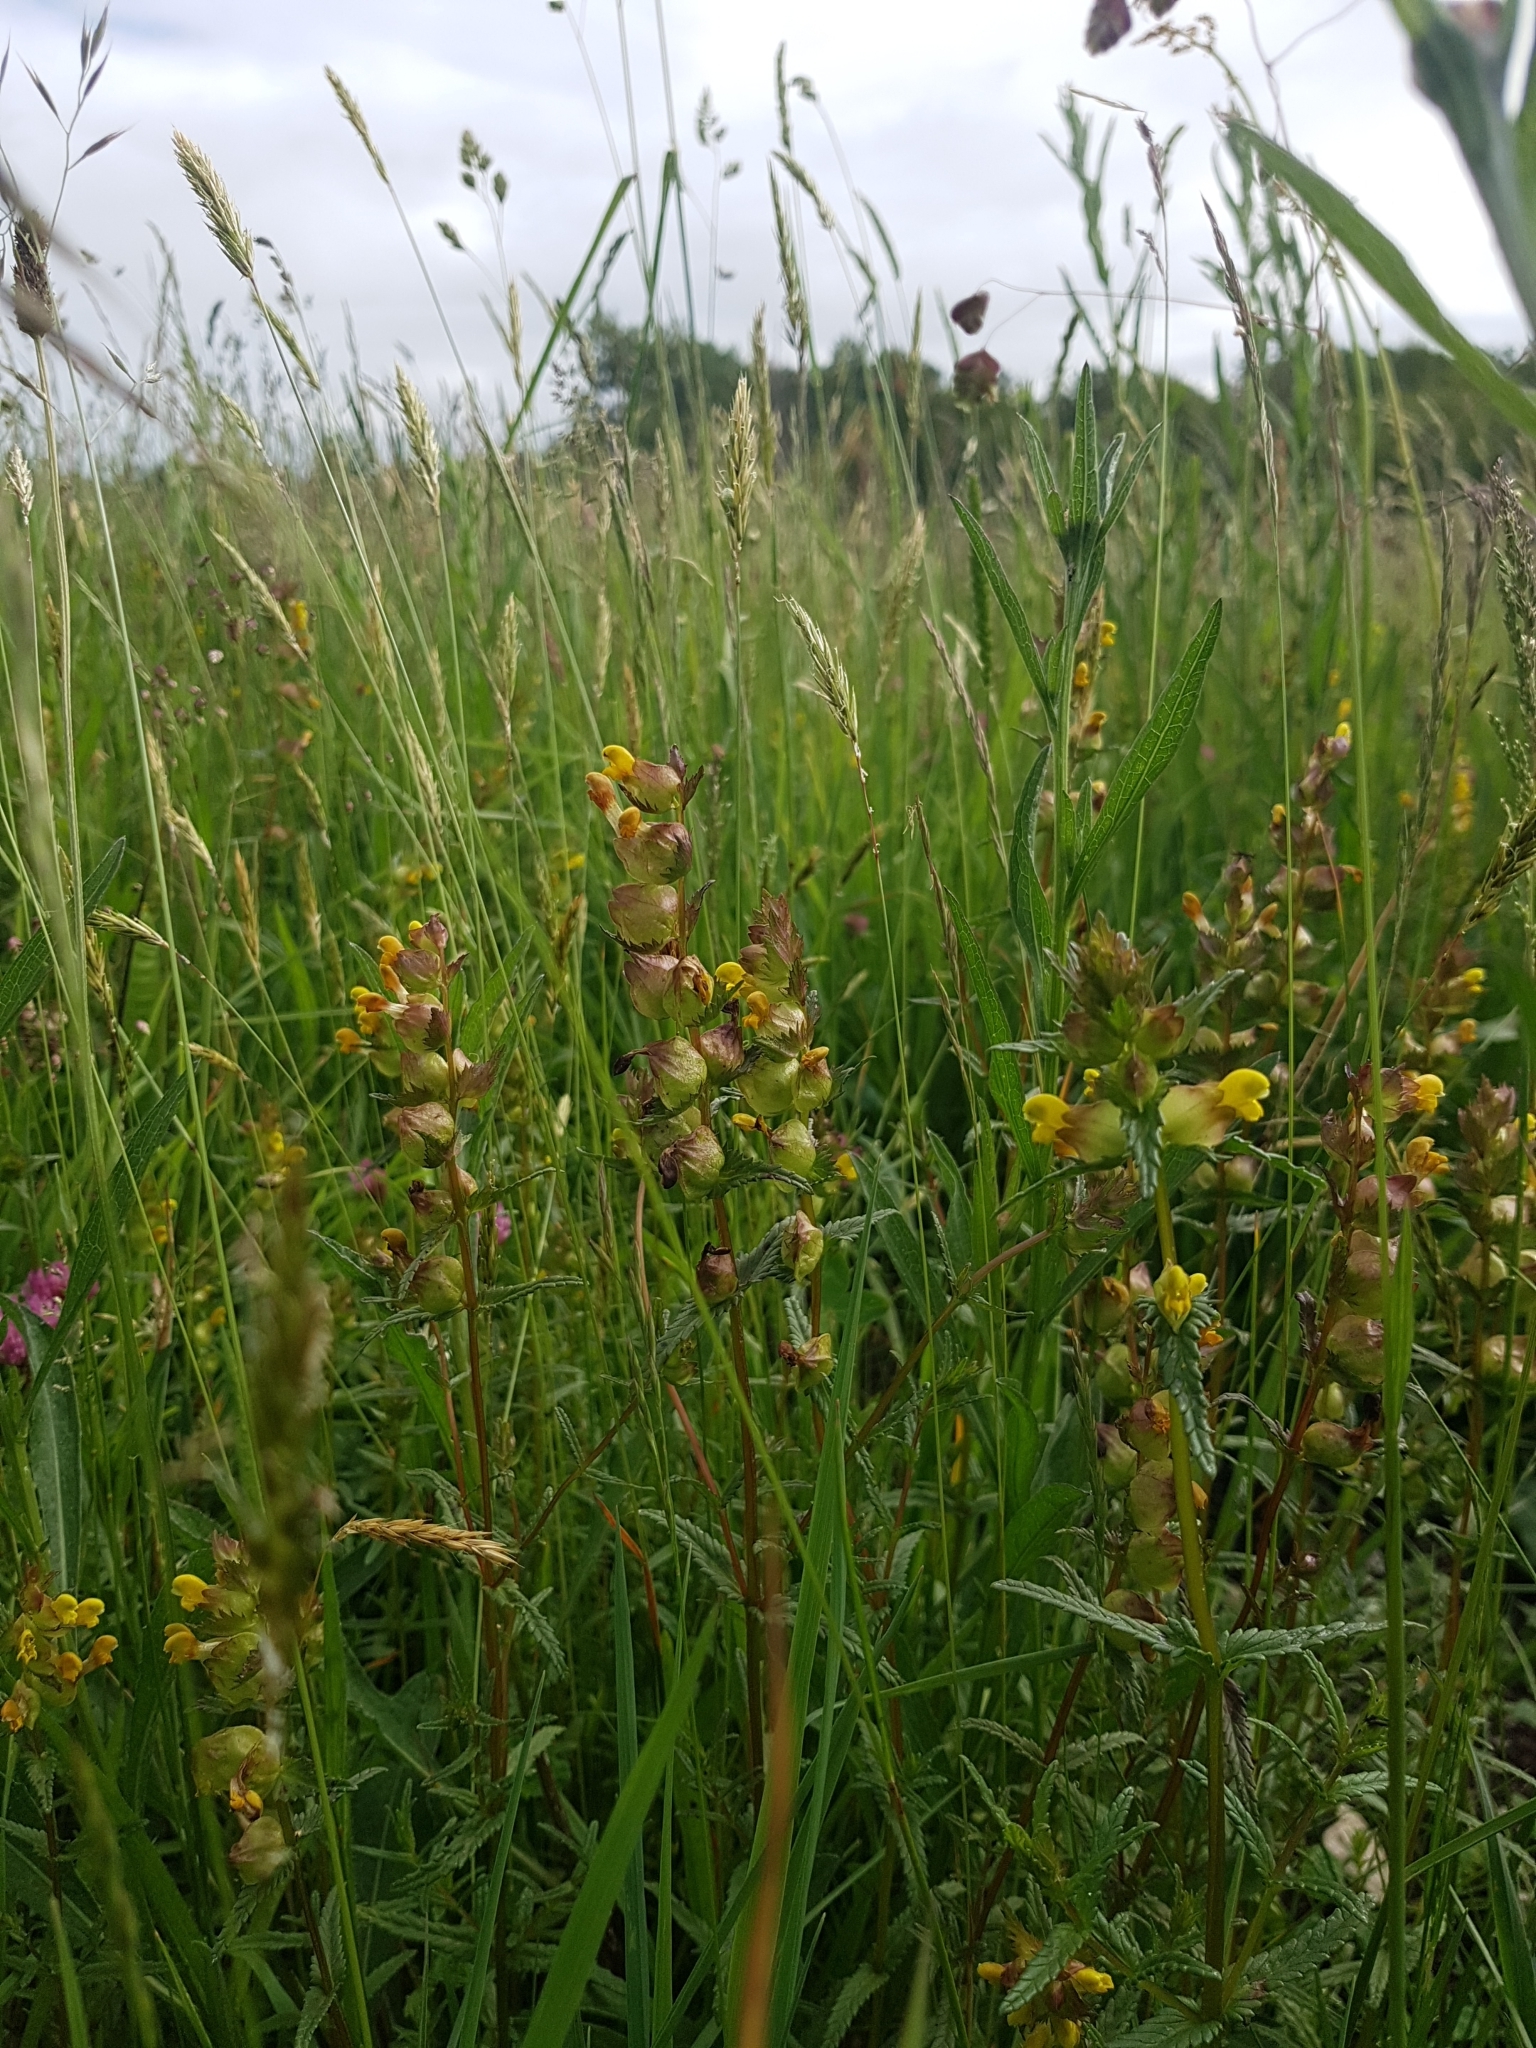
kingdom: Plantae
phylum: Tracheophyta
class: Magnoliopsida
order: Lamiales
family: Orobanchaceae
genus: Rhinanthus
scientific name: Rhinanthus minor
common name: Yellow-rattle
